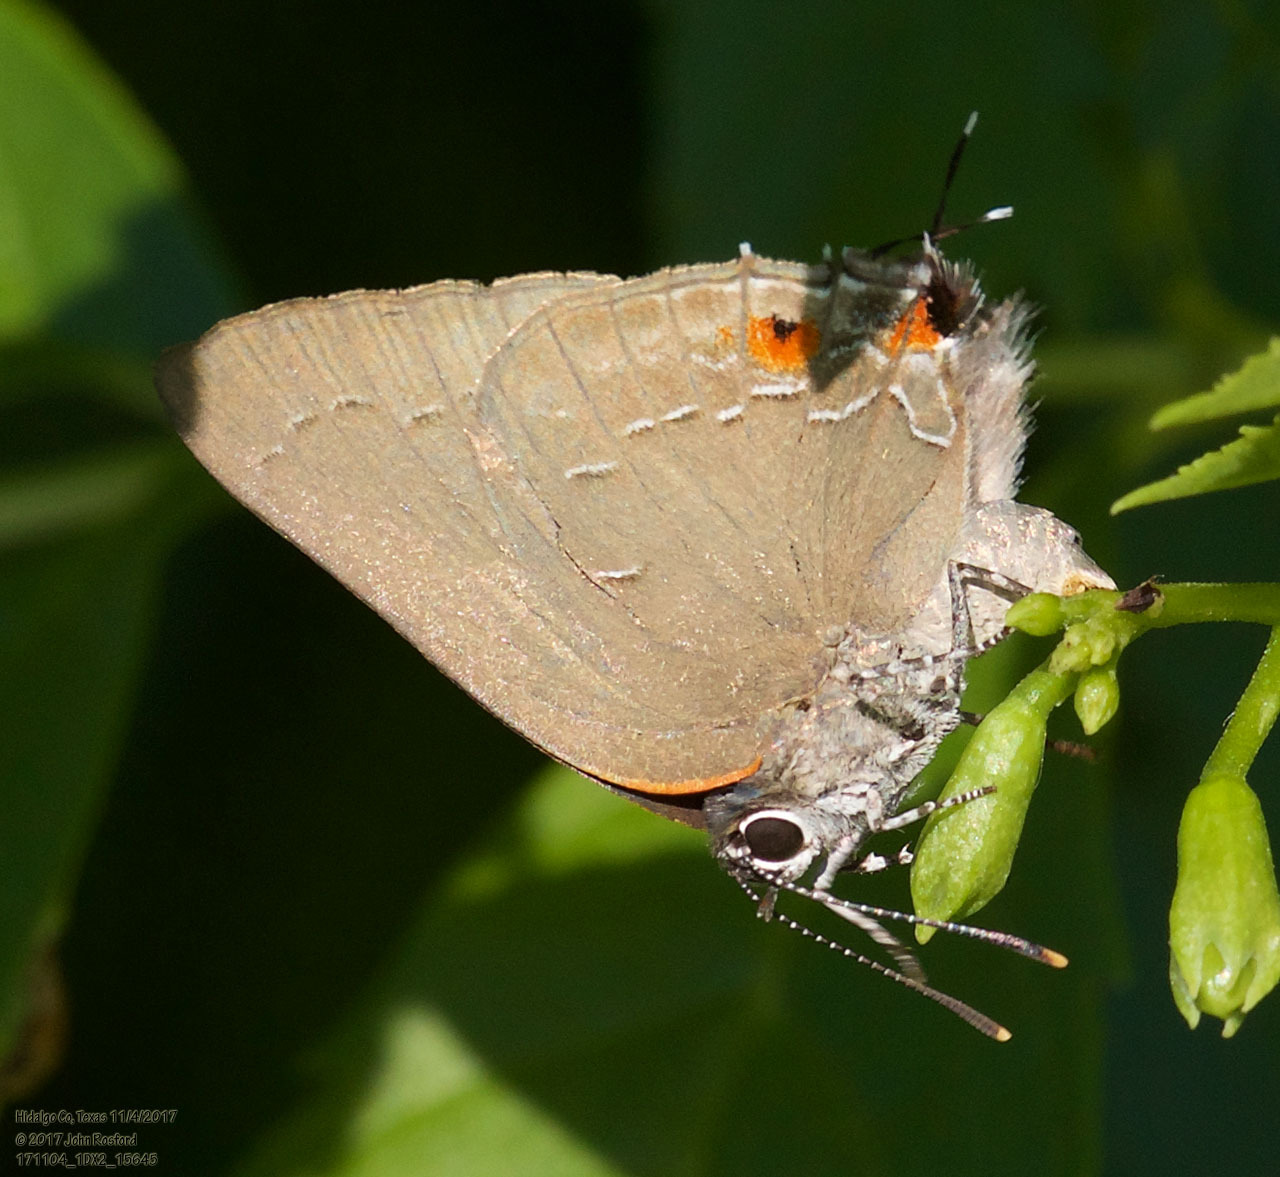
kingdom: Animalia
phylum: Arthropoda
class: Insecta
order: Lepidoptera
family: Lycaenidae
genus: Michaelus
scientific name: Michaelus ira
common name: Shadowed hairstreak
